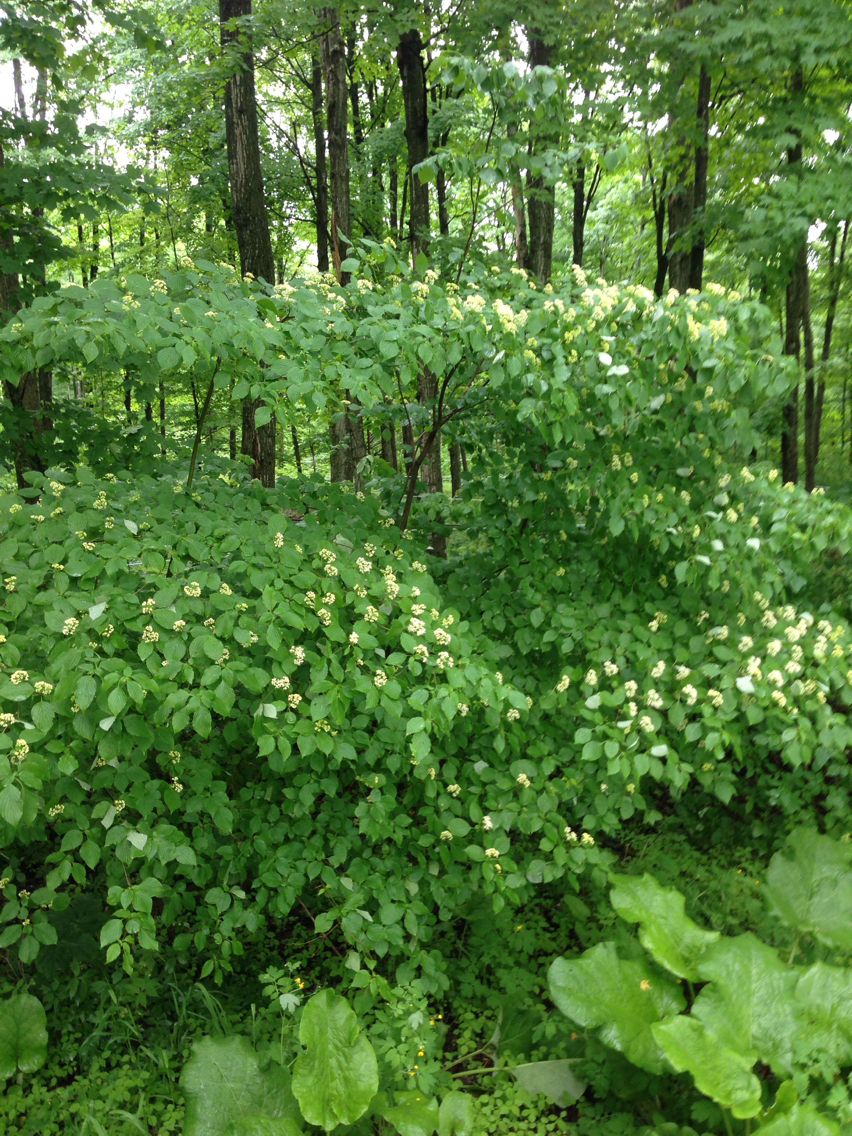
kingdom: Plantae
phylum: Tracheophyta
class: Magnoliopsida
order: Cornales
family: Cornaceae
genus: Cornus
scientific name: Cornus alternifolia
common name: Pagoda dogwood
